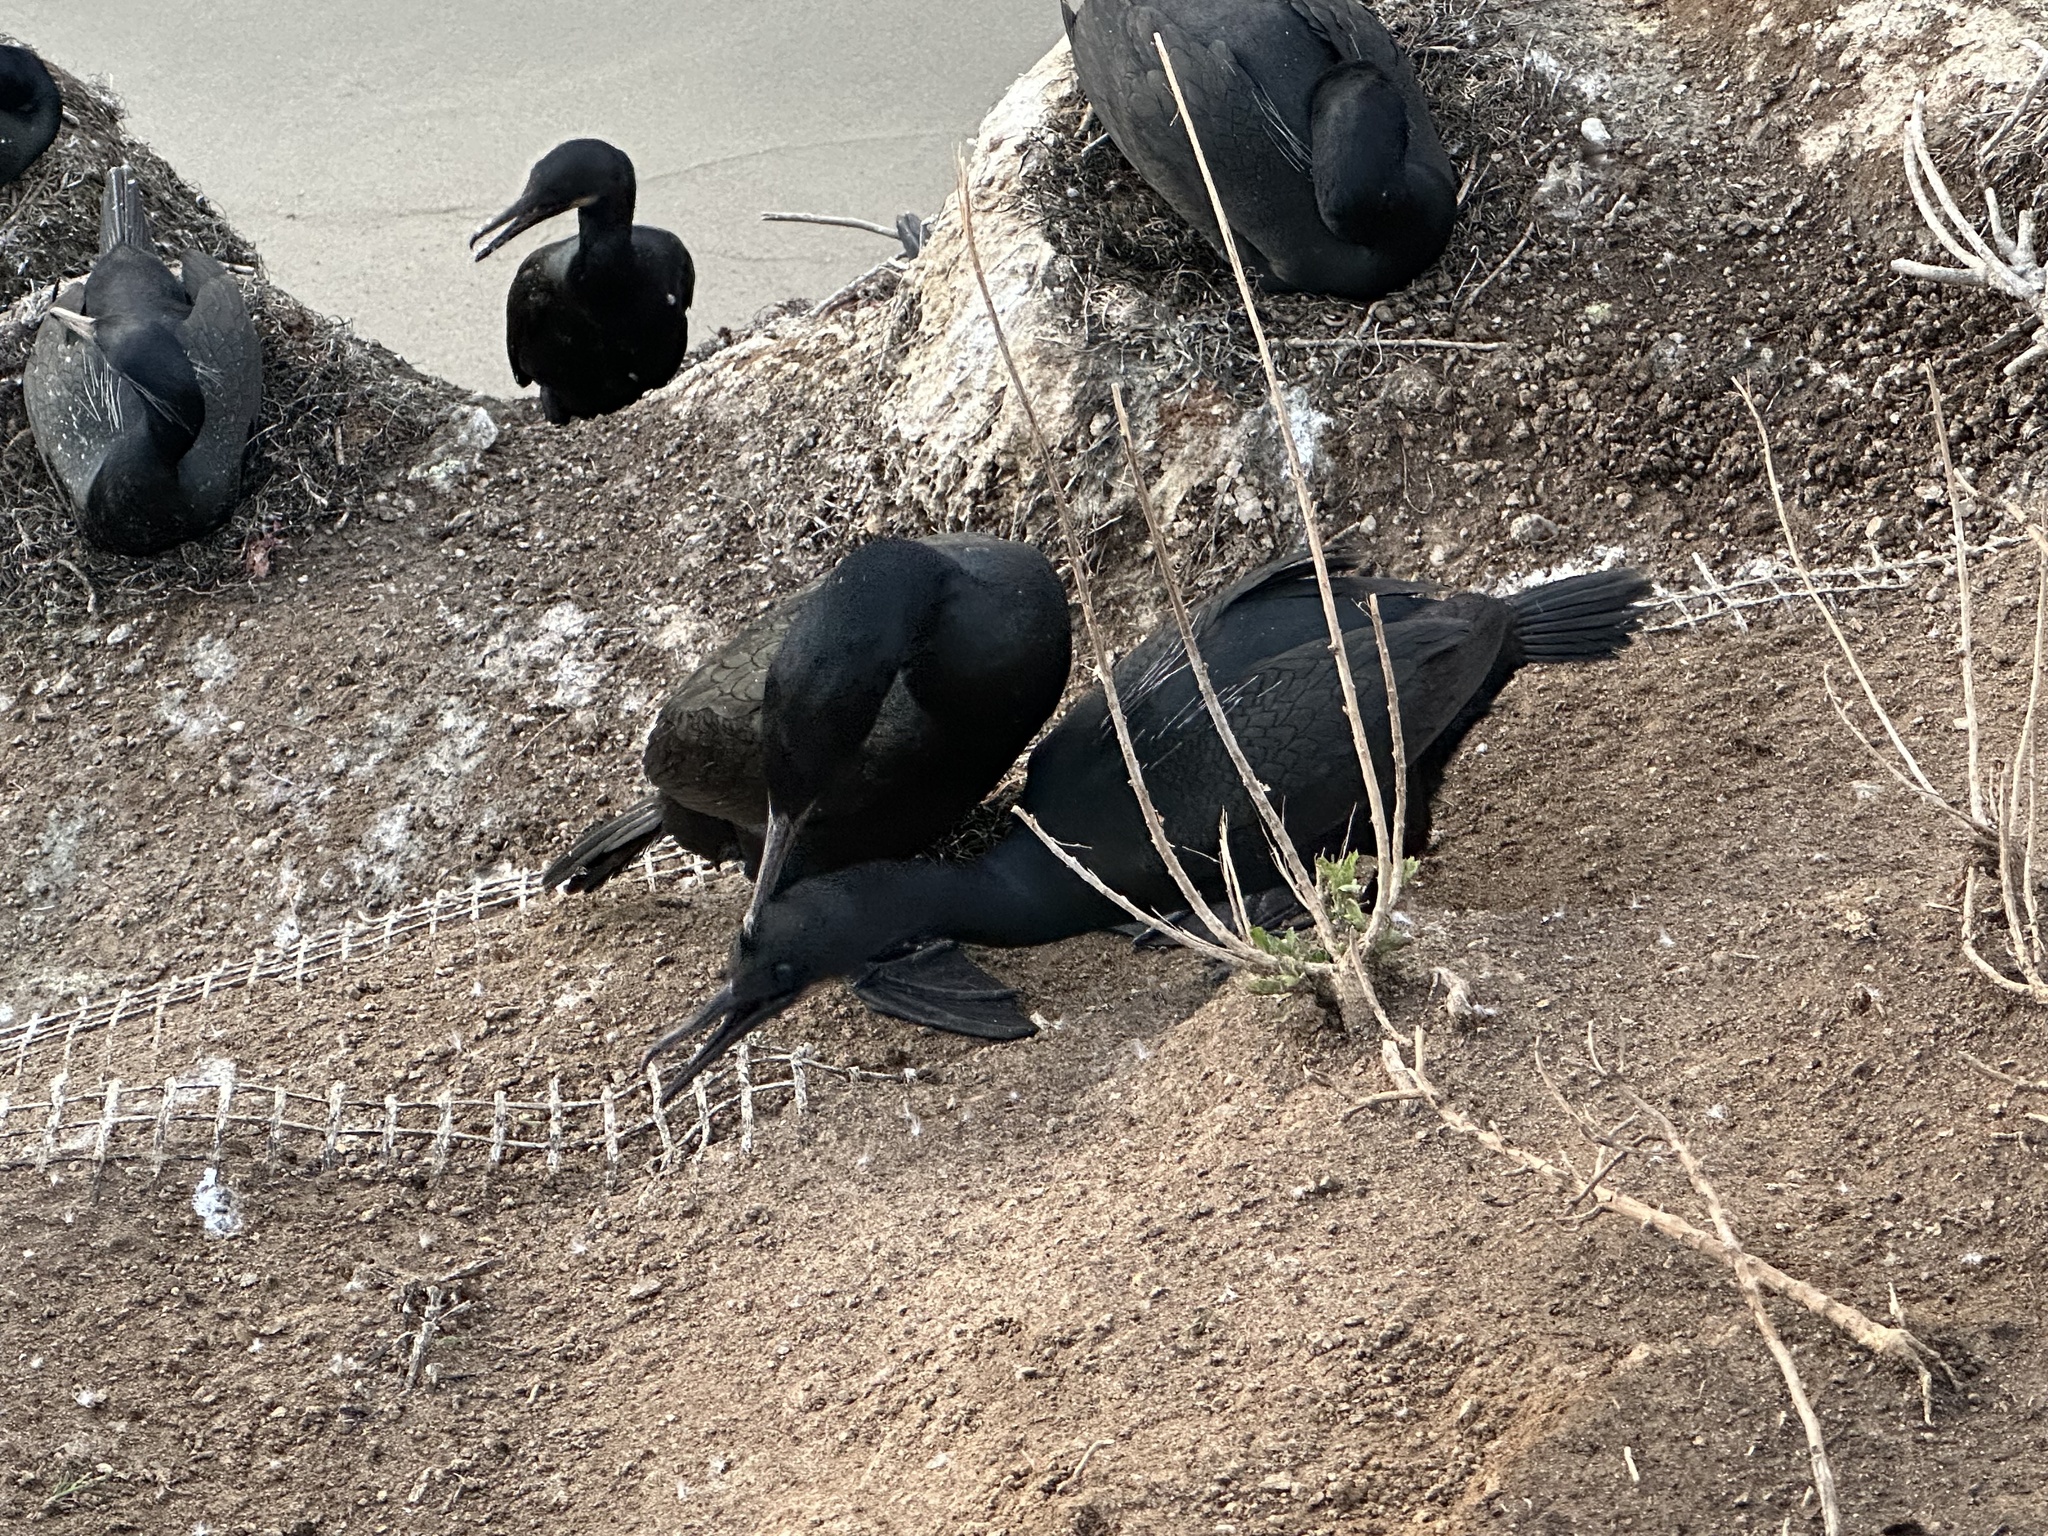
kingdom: Animalia
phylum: Chordata
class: Aves
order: Suliformes
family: Phalacrocoracidae
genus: Urile
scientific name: Urile penicillatus
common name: Brandt's cormorant
